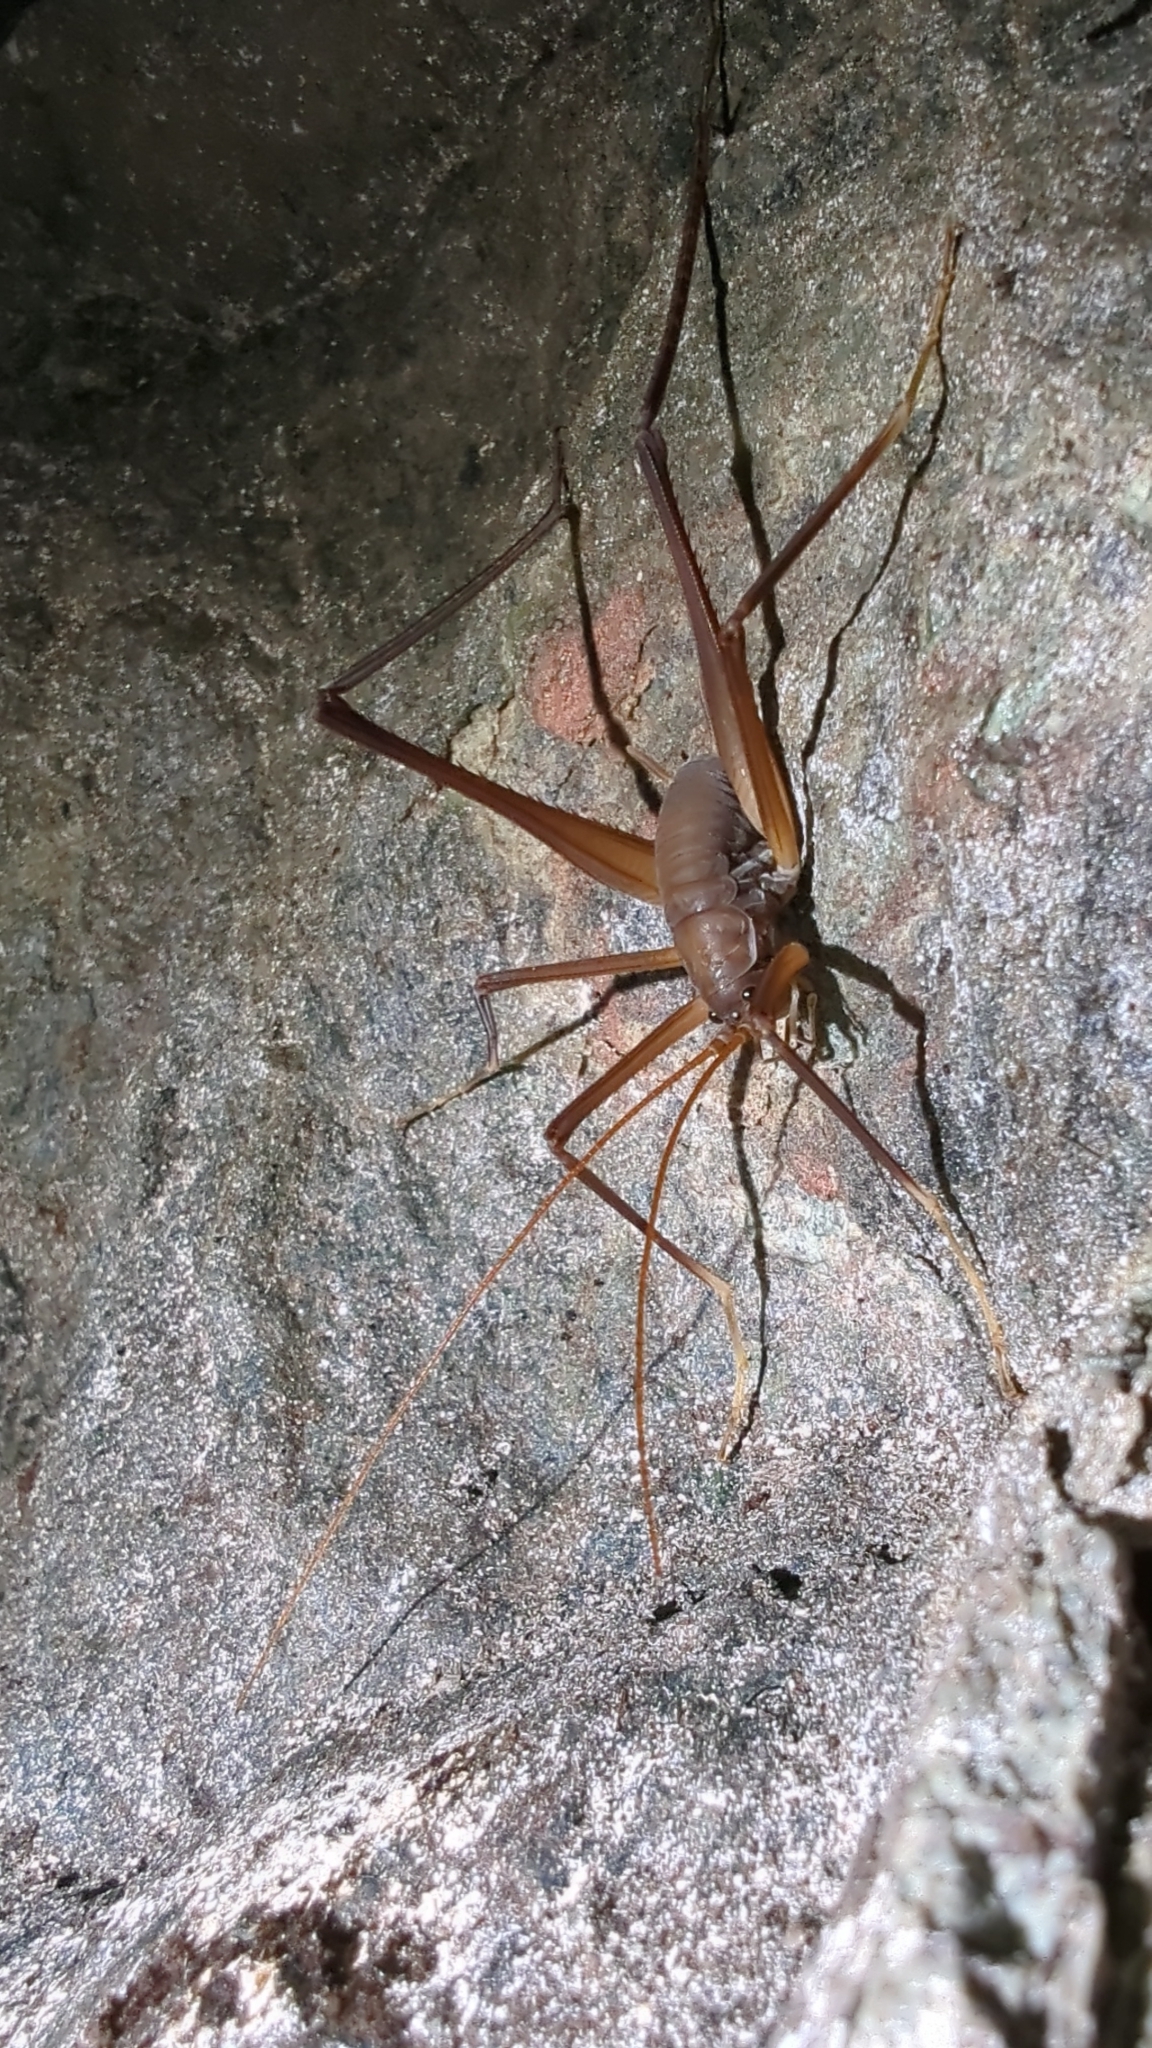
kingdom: Animalia
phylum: Arthropoda
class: Insecta
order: Orthoptera
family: Rhaphidophoridae
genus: Tropidischia
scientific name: Tropidischia xanthostoma
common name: Square-legged camel cricket
